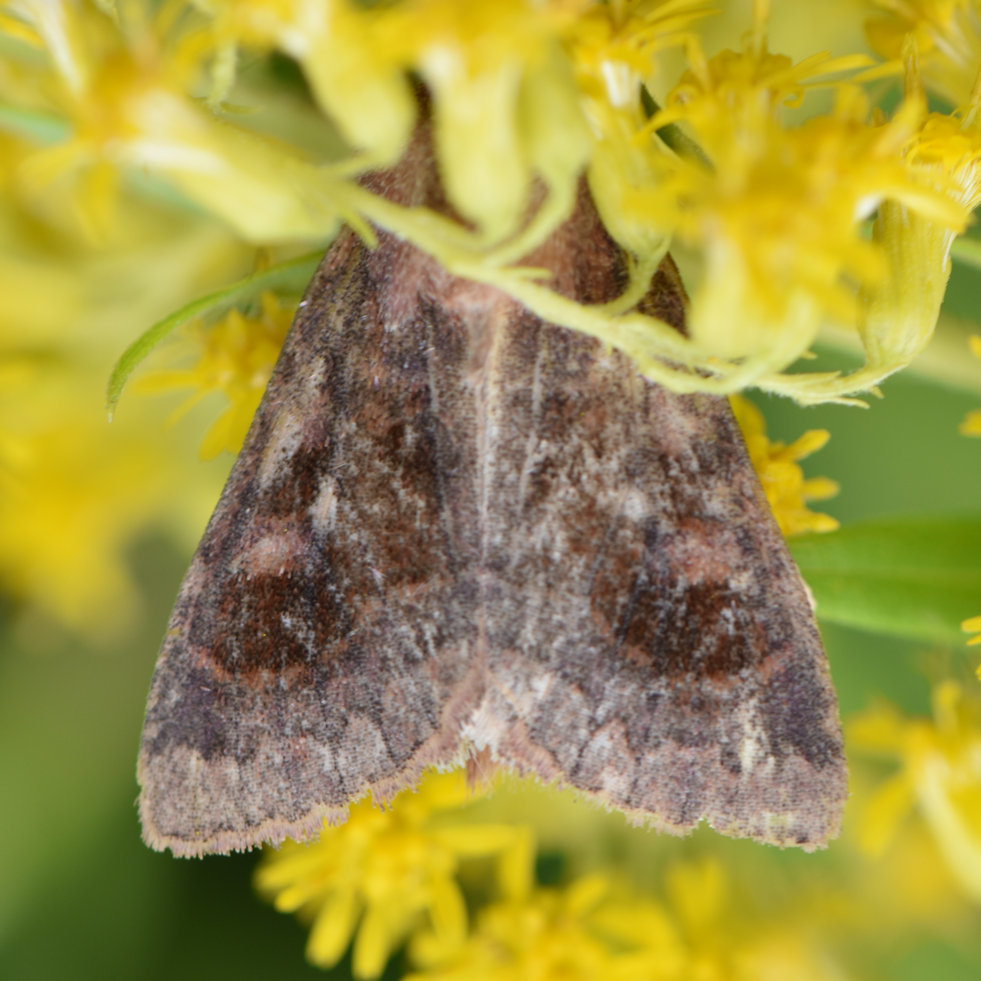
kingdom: Animalia
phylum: Arthropoda
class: Insecta
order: Lepidoptera
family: Noctuidae
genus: Nephelodes
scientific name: Nephelodes minians
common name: Bronzed cutworm
